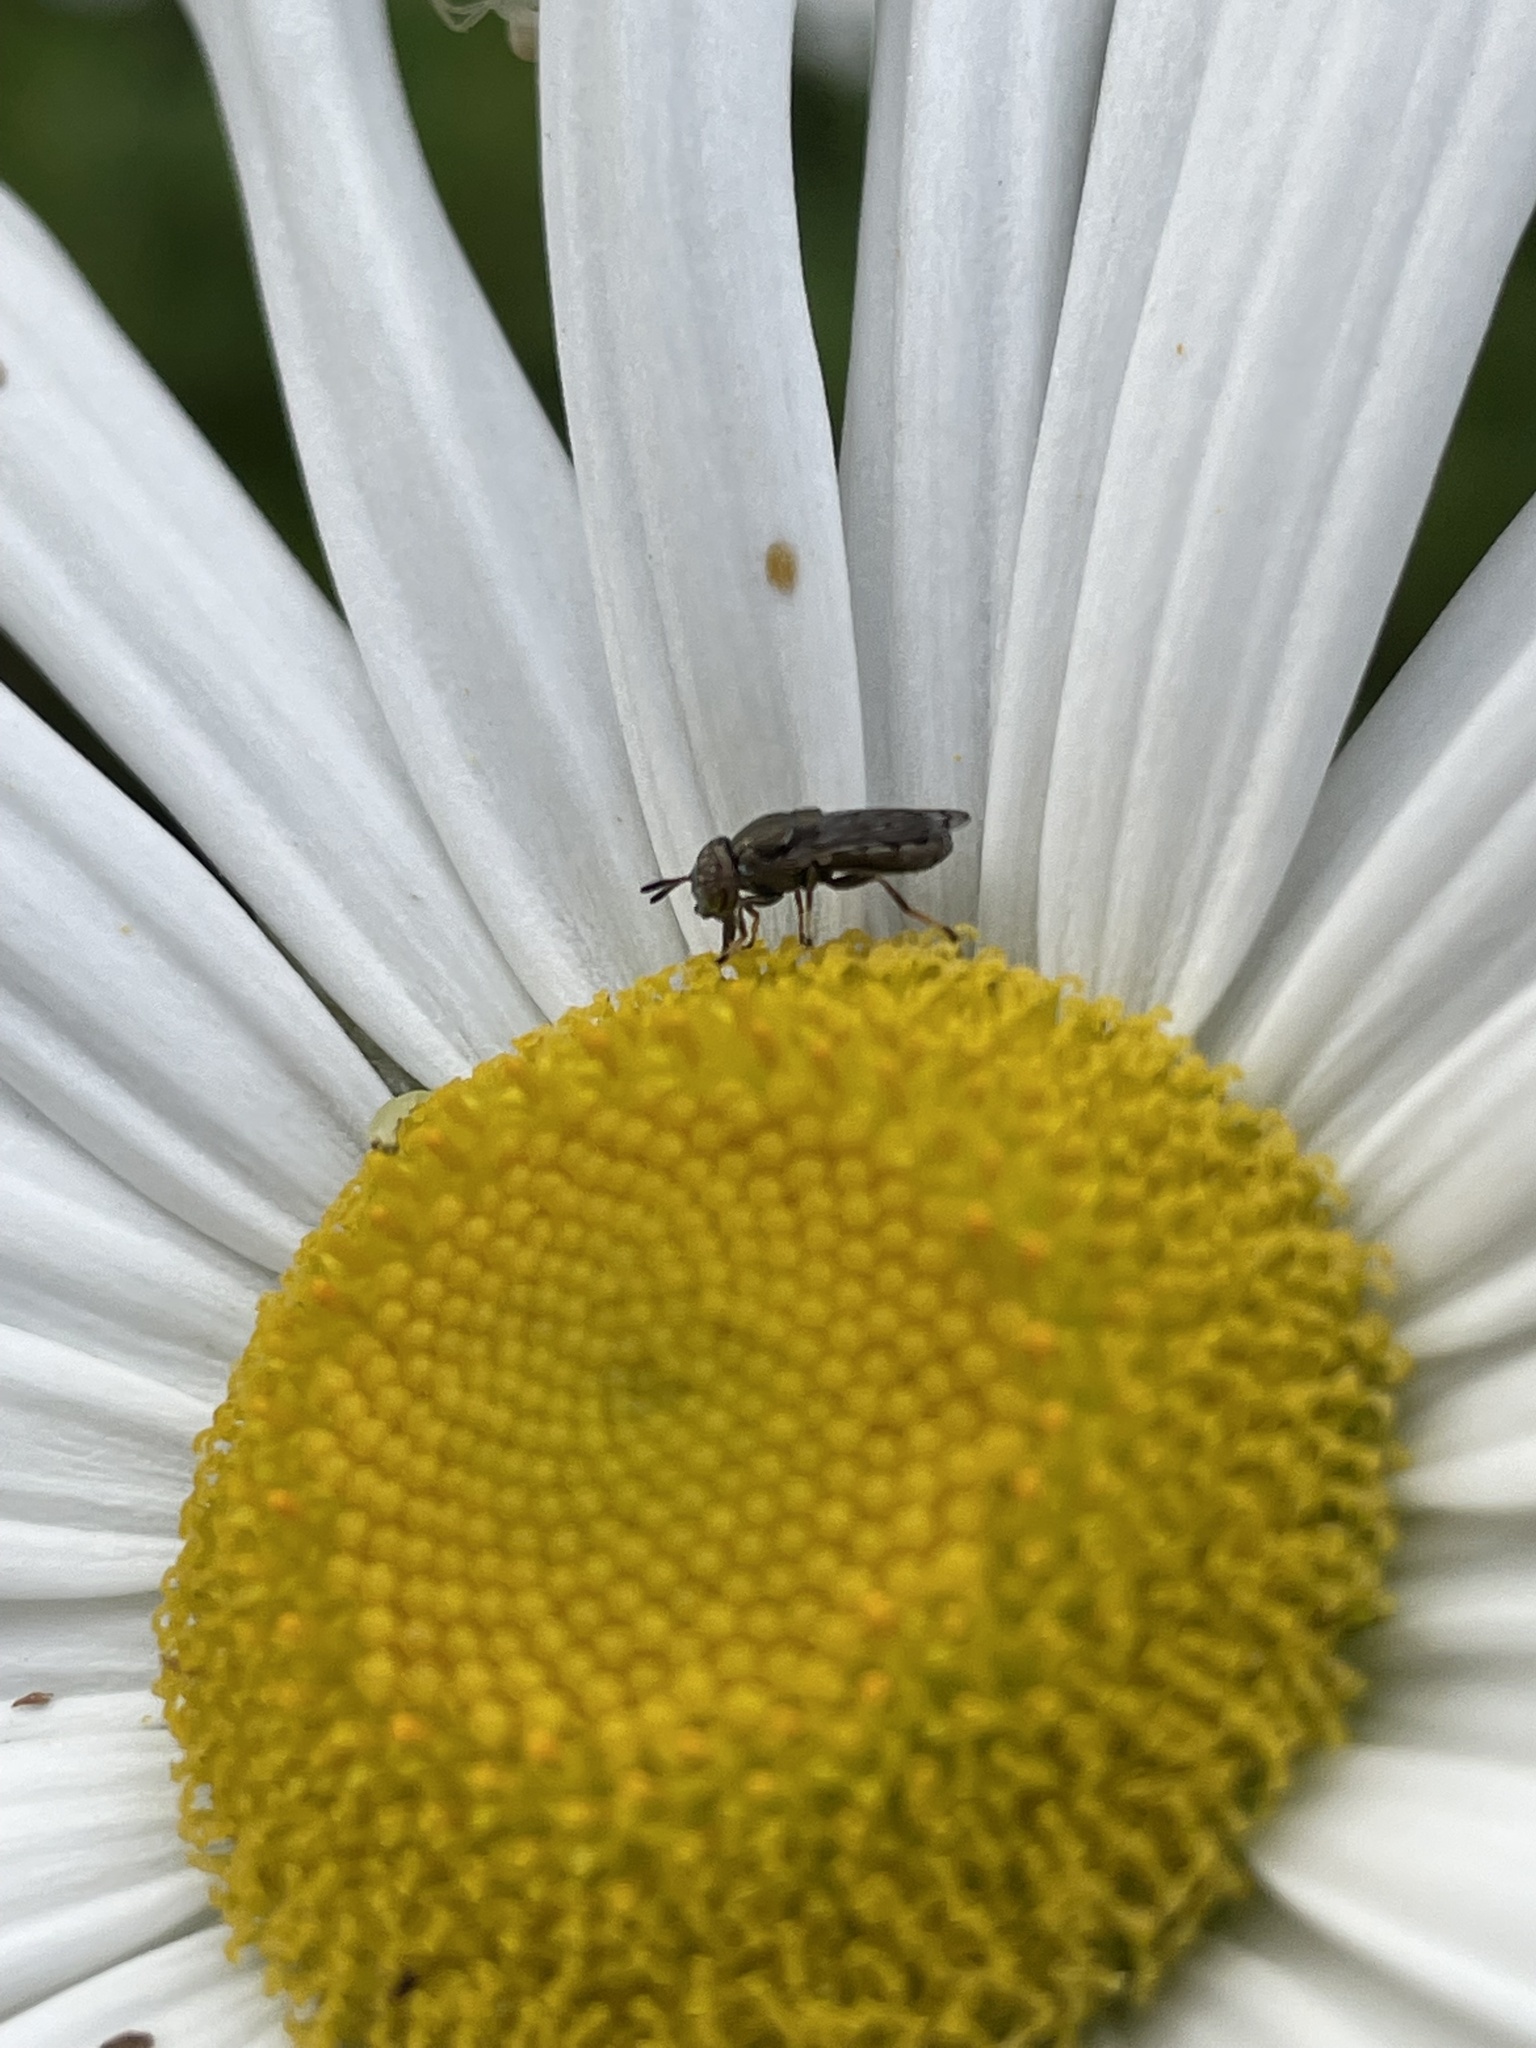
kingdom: Animalia
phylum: Arthropoda
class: Insecta
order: Diptera
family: Syrphidae
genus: Orthonevra
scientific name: Orthonevra nitida
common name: Wavy mucksucker
